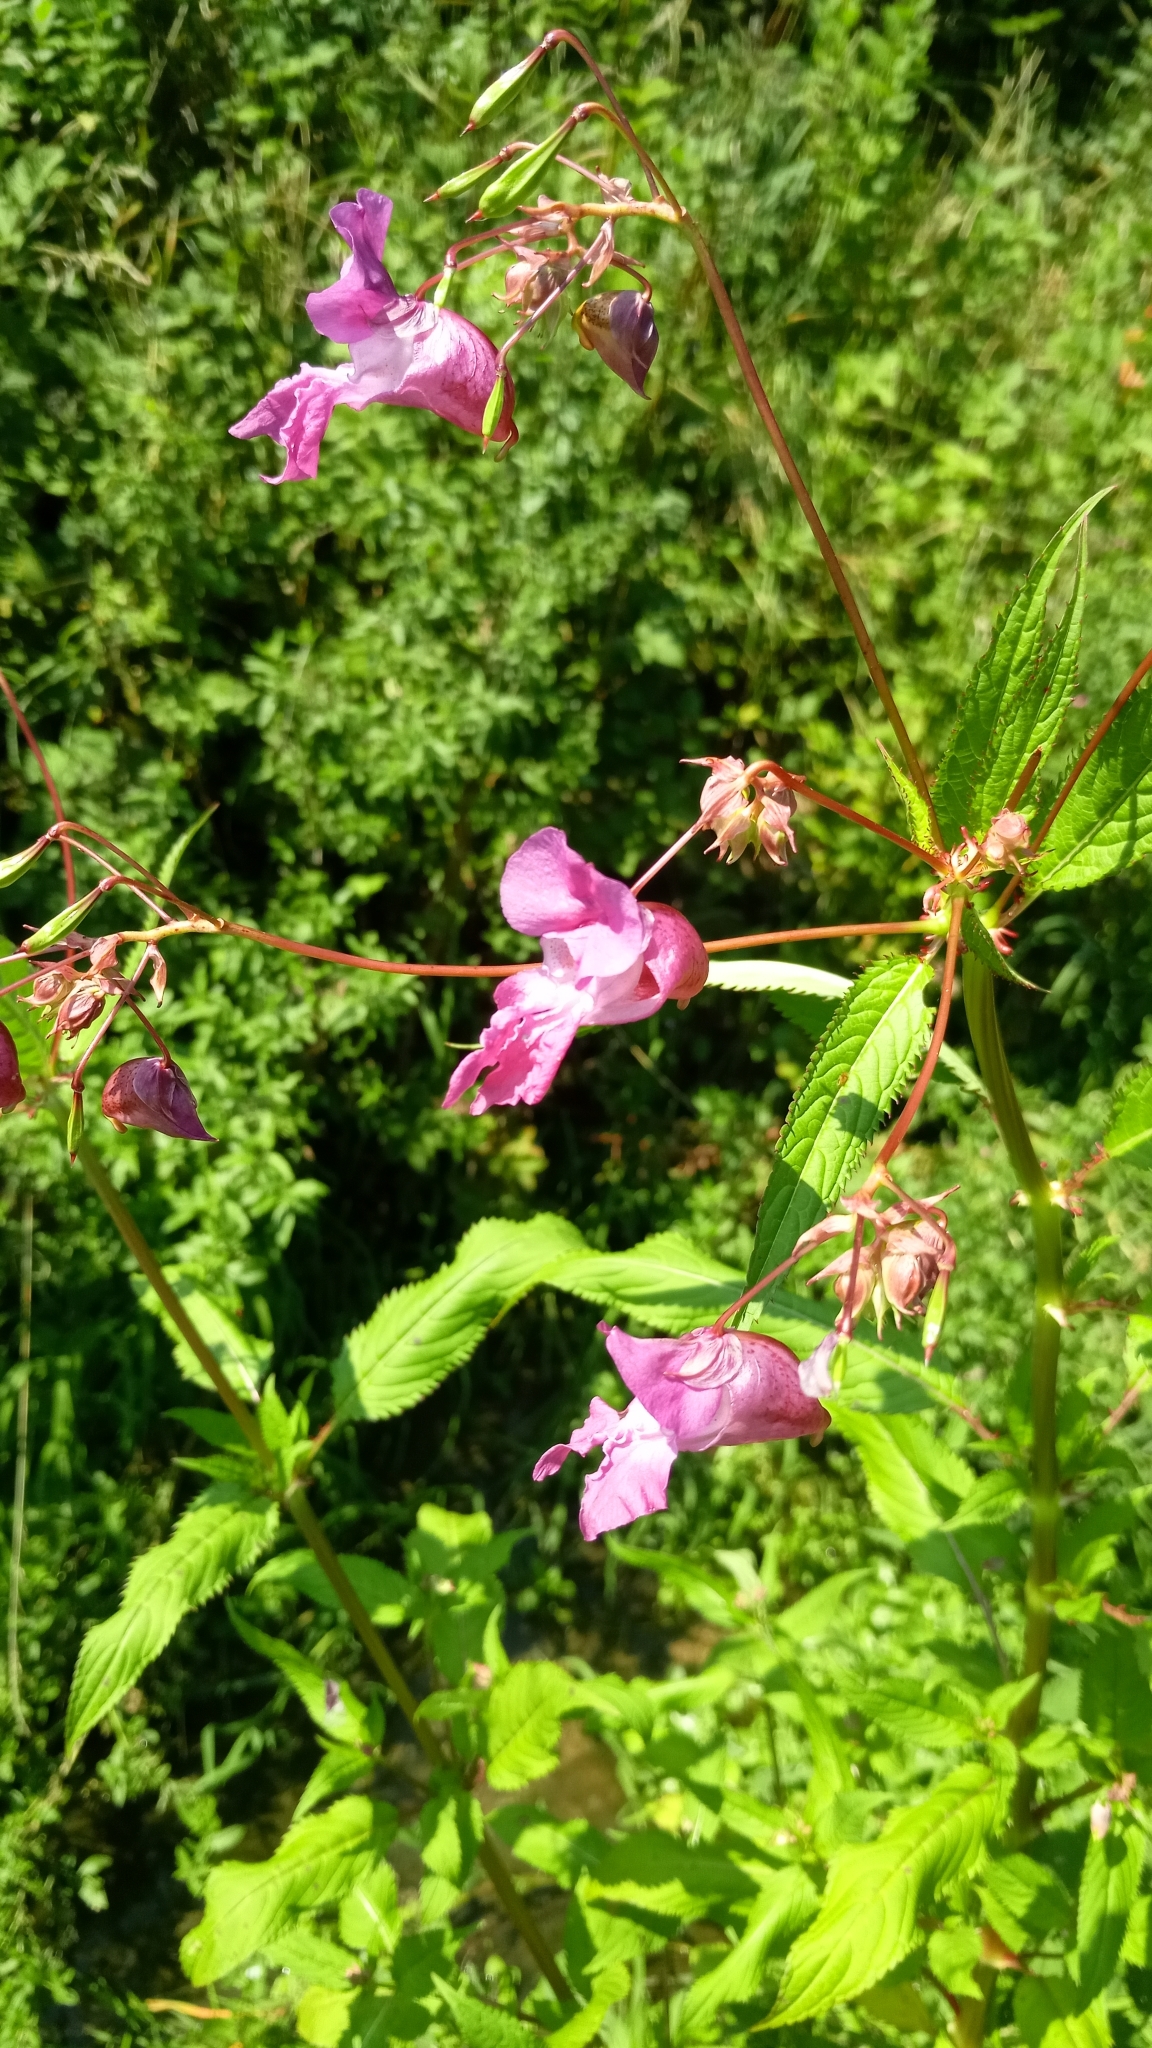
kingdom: Plantae
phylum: Tracheophyta
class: Magnoliopsida
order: Ericales
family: Balsaminaceae
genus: Impatiens
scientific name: Impatiens glandulifera
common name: Himalayan balsam
